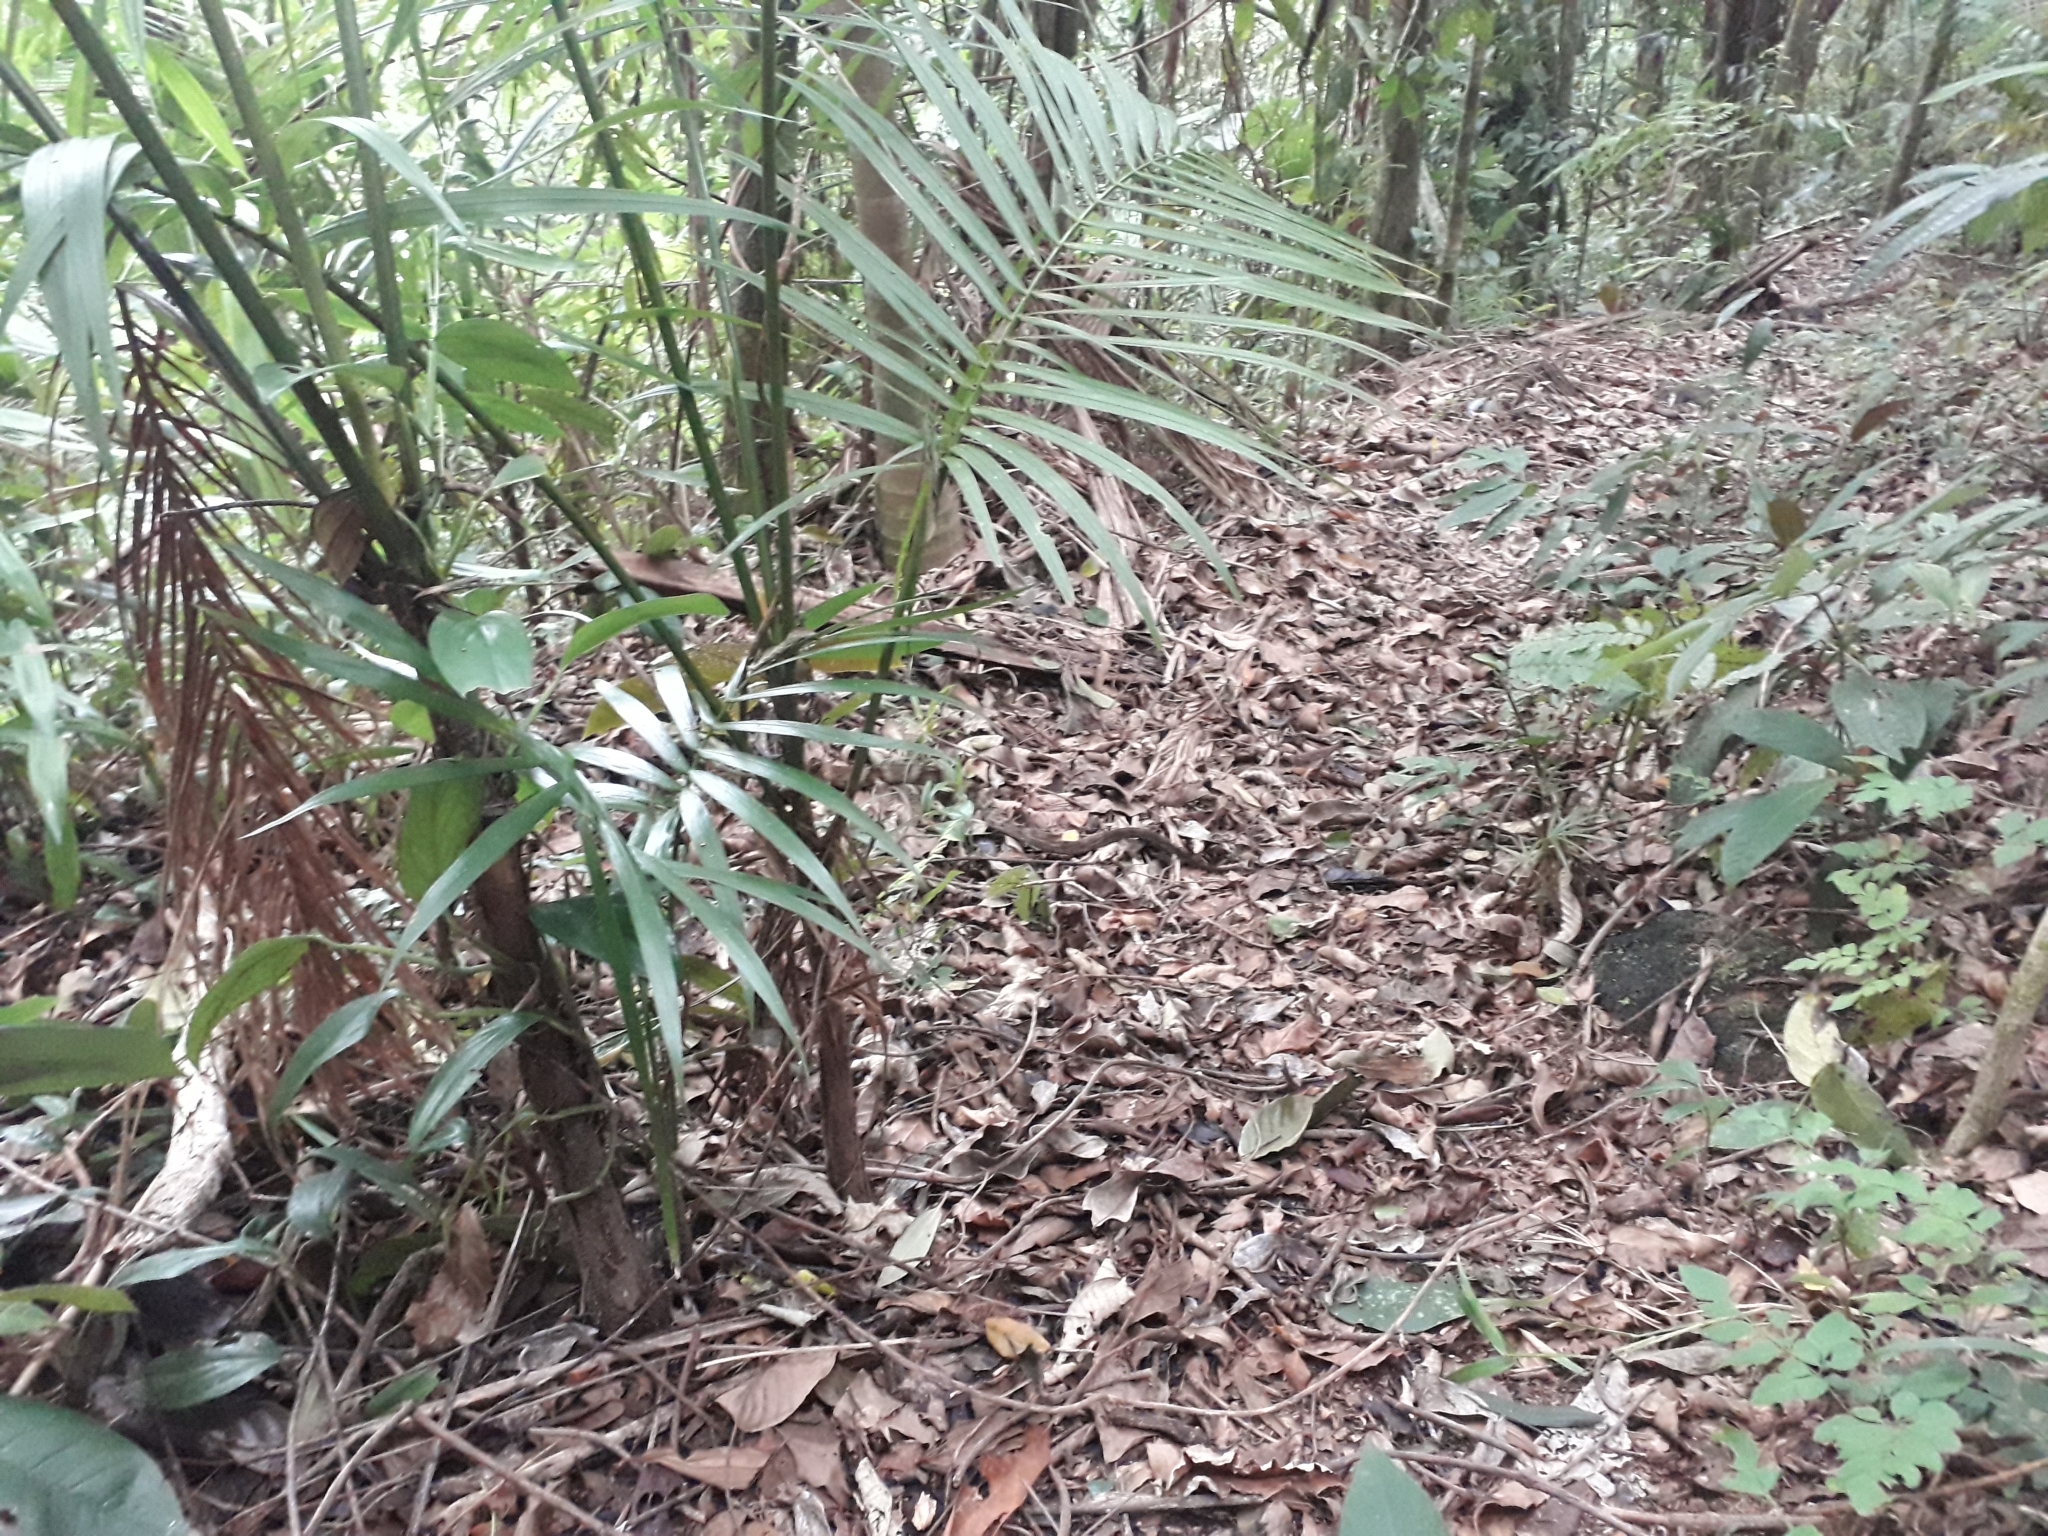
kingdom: Animalia
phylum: Chordata
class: Squamata
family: Viperidae
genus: Bothrops
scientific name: Bothrops jararaca
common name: Jararaca
